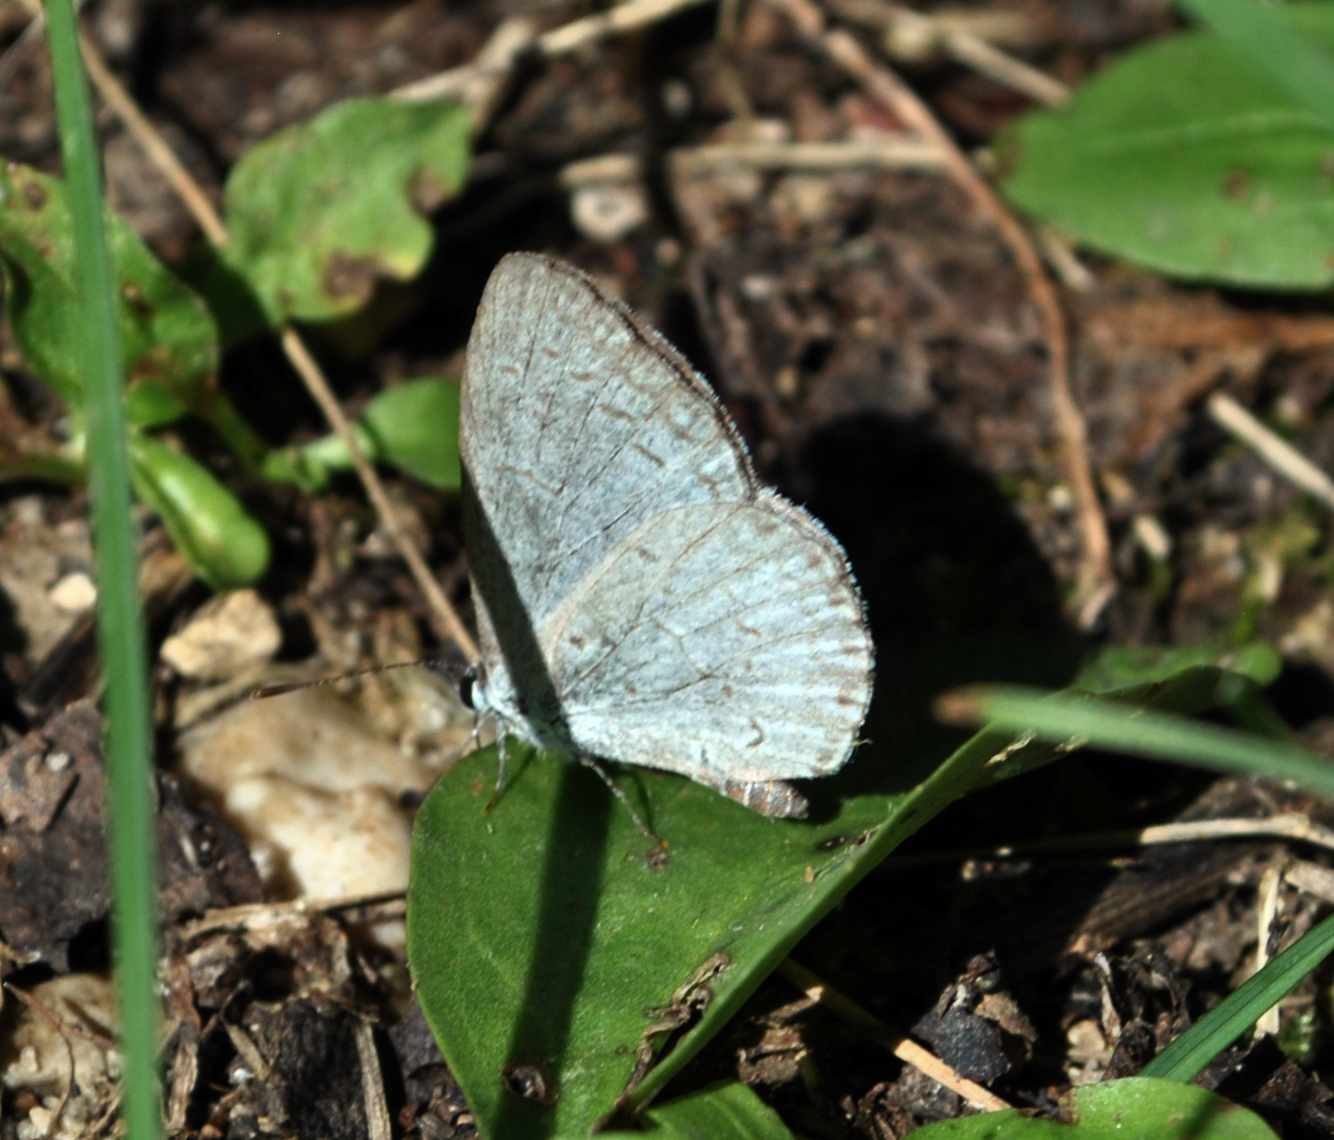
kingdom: Animalia
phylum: Arthropoda
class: Insecta
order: Lepidoptera
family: Lycaenidae
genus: Cyaniris
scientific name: Cyaniris neglecta
